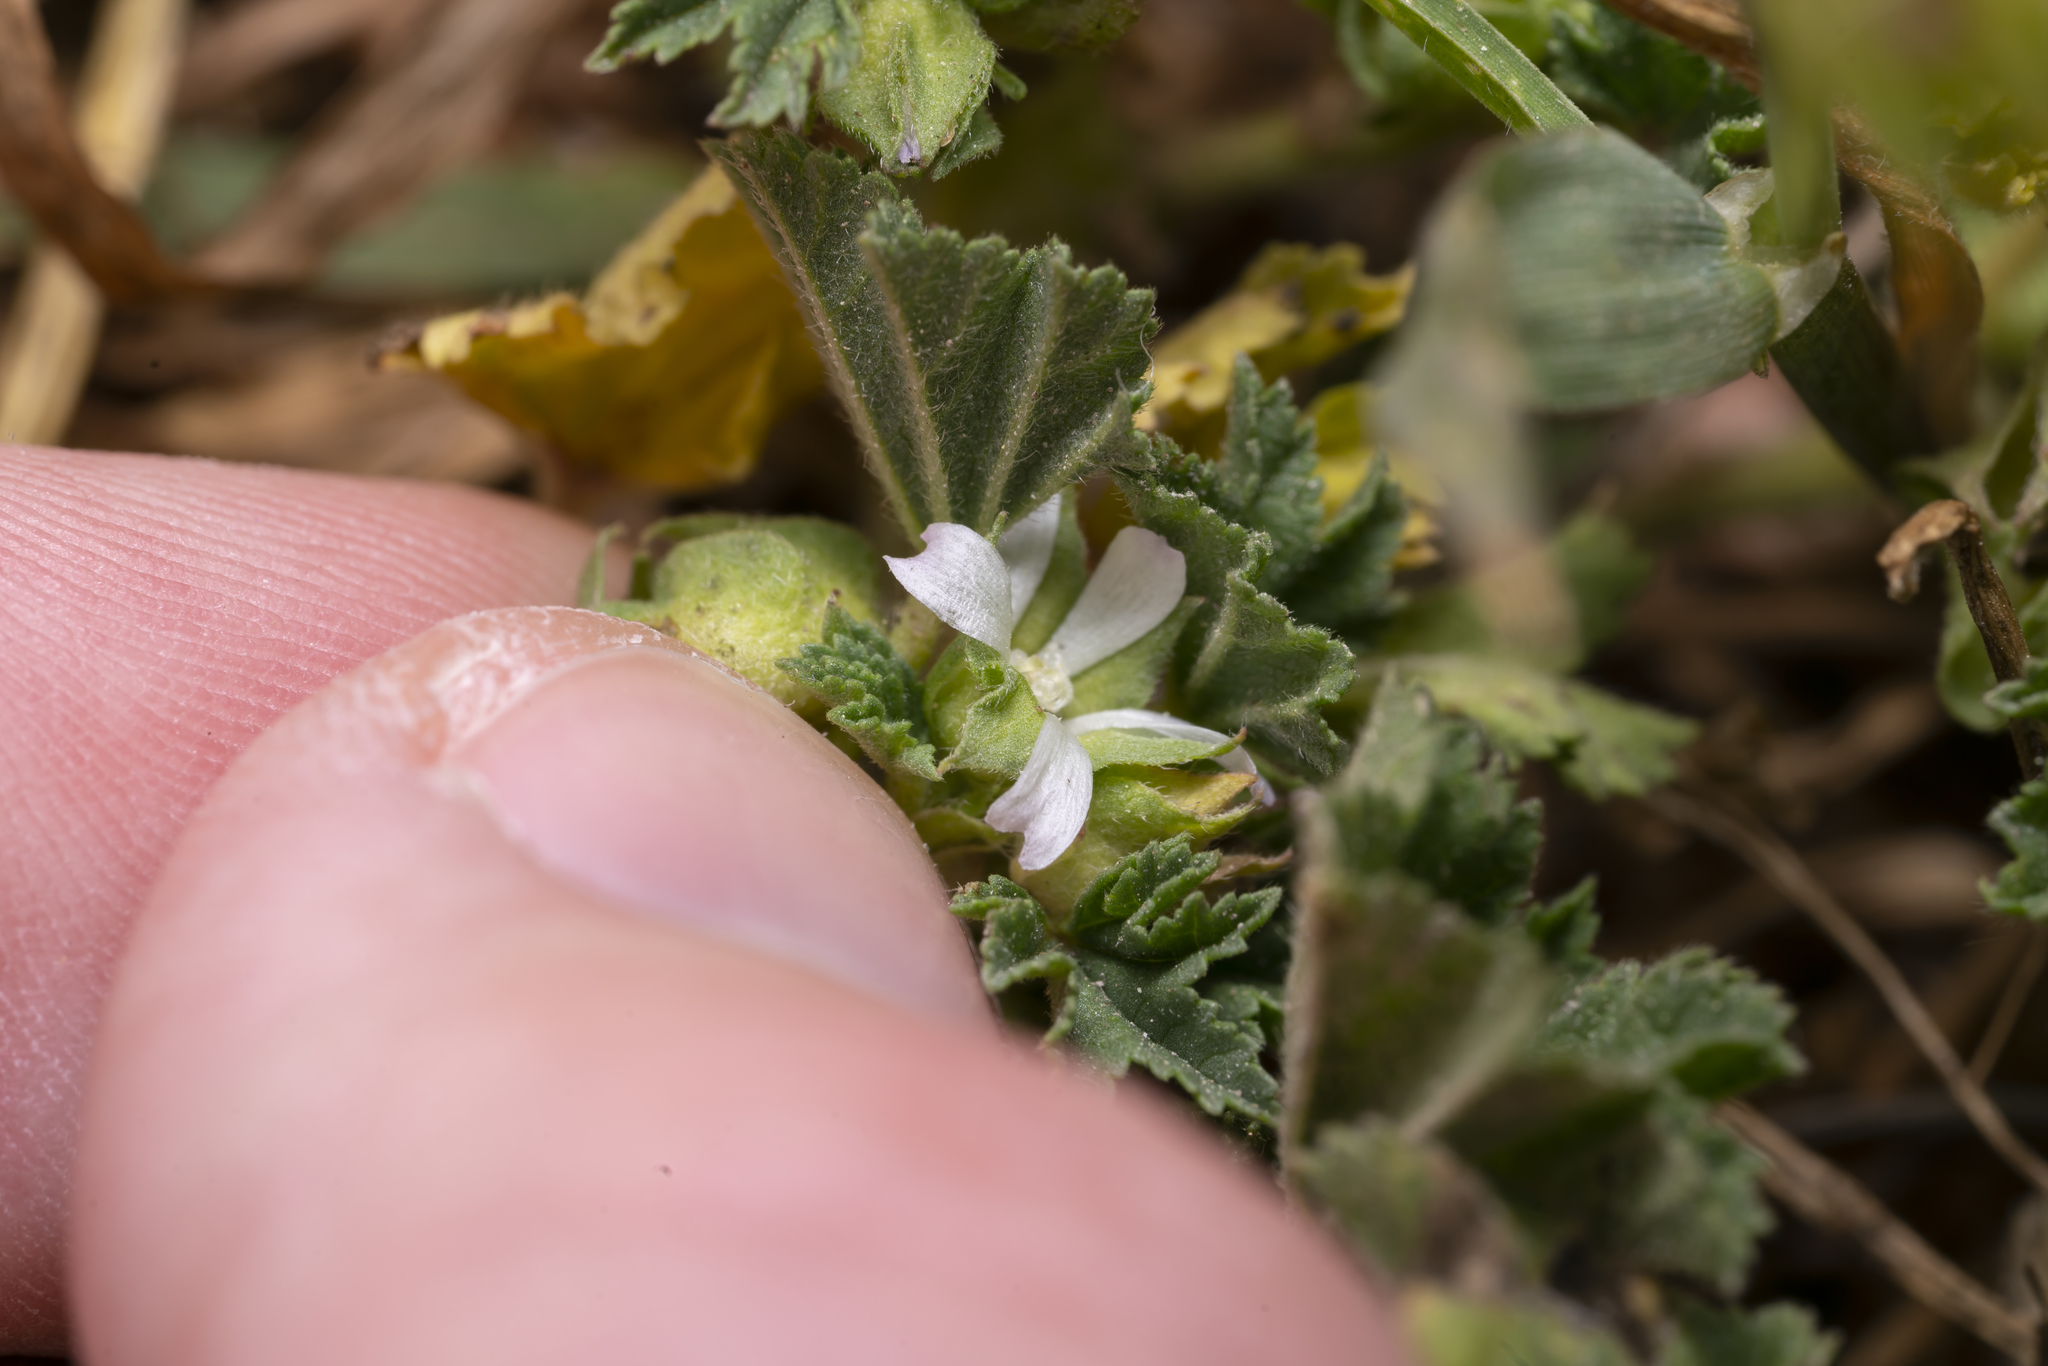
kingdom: Plantae
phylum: Tracheophyta
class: Magnoliopsida
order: Malvales
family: Malvaceae
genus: Malva
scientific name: Malva parviflora
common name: Least mallow
